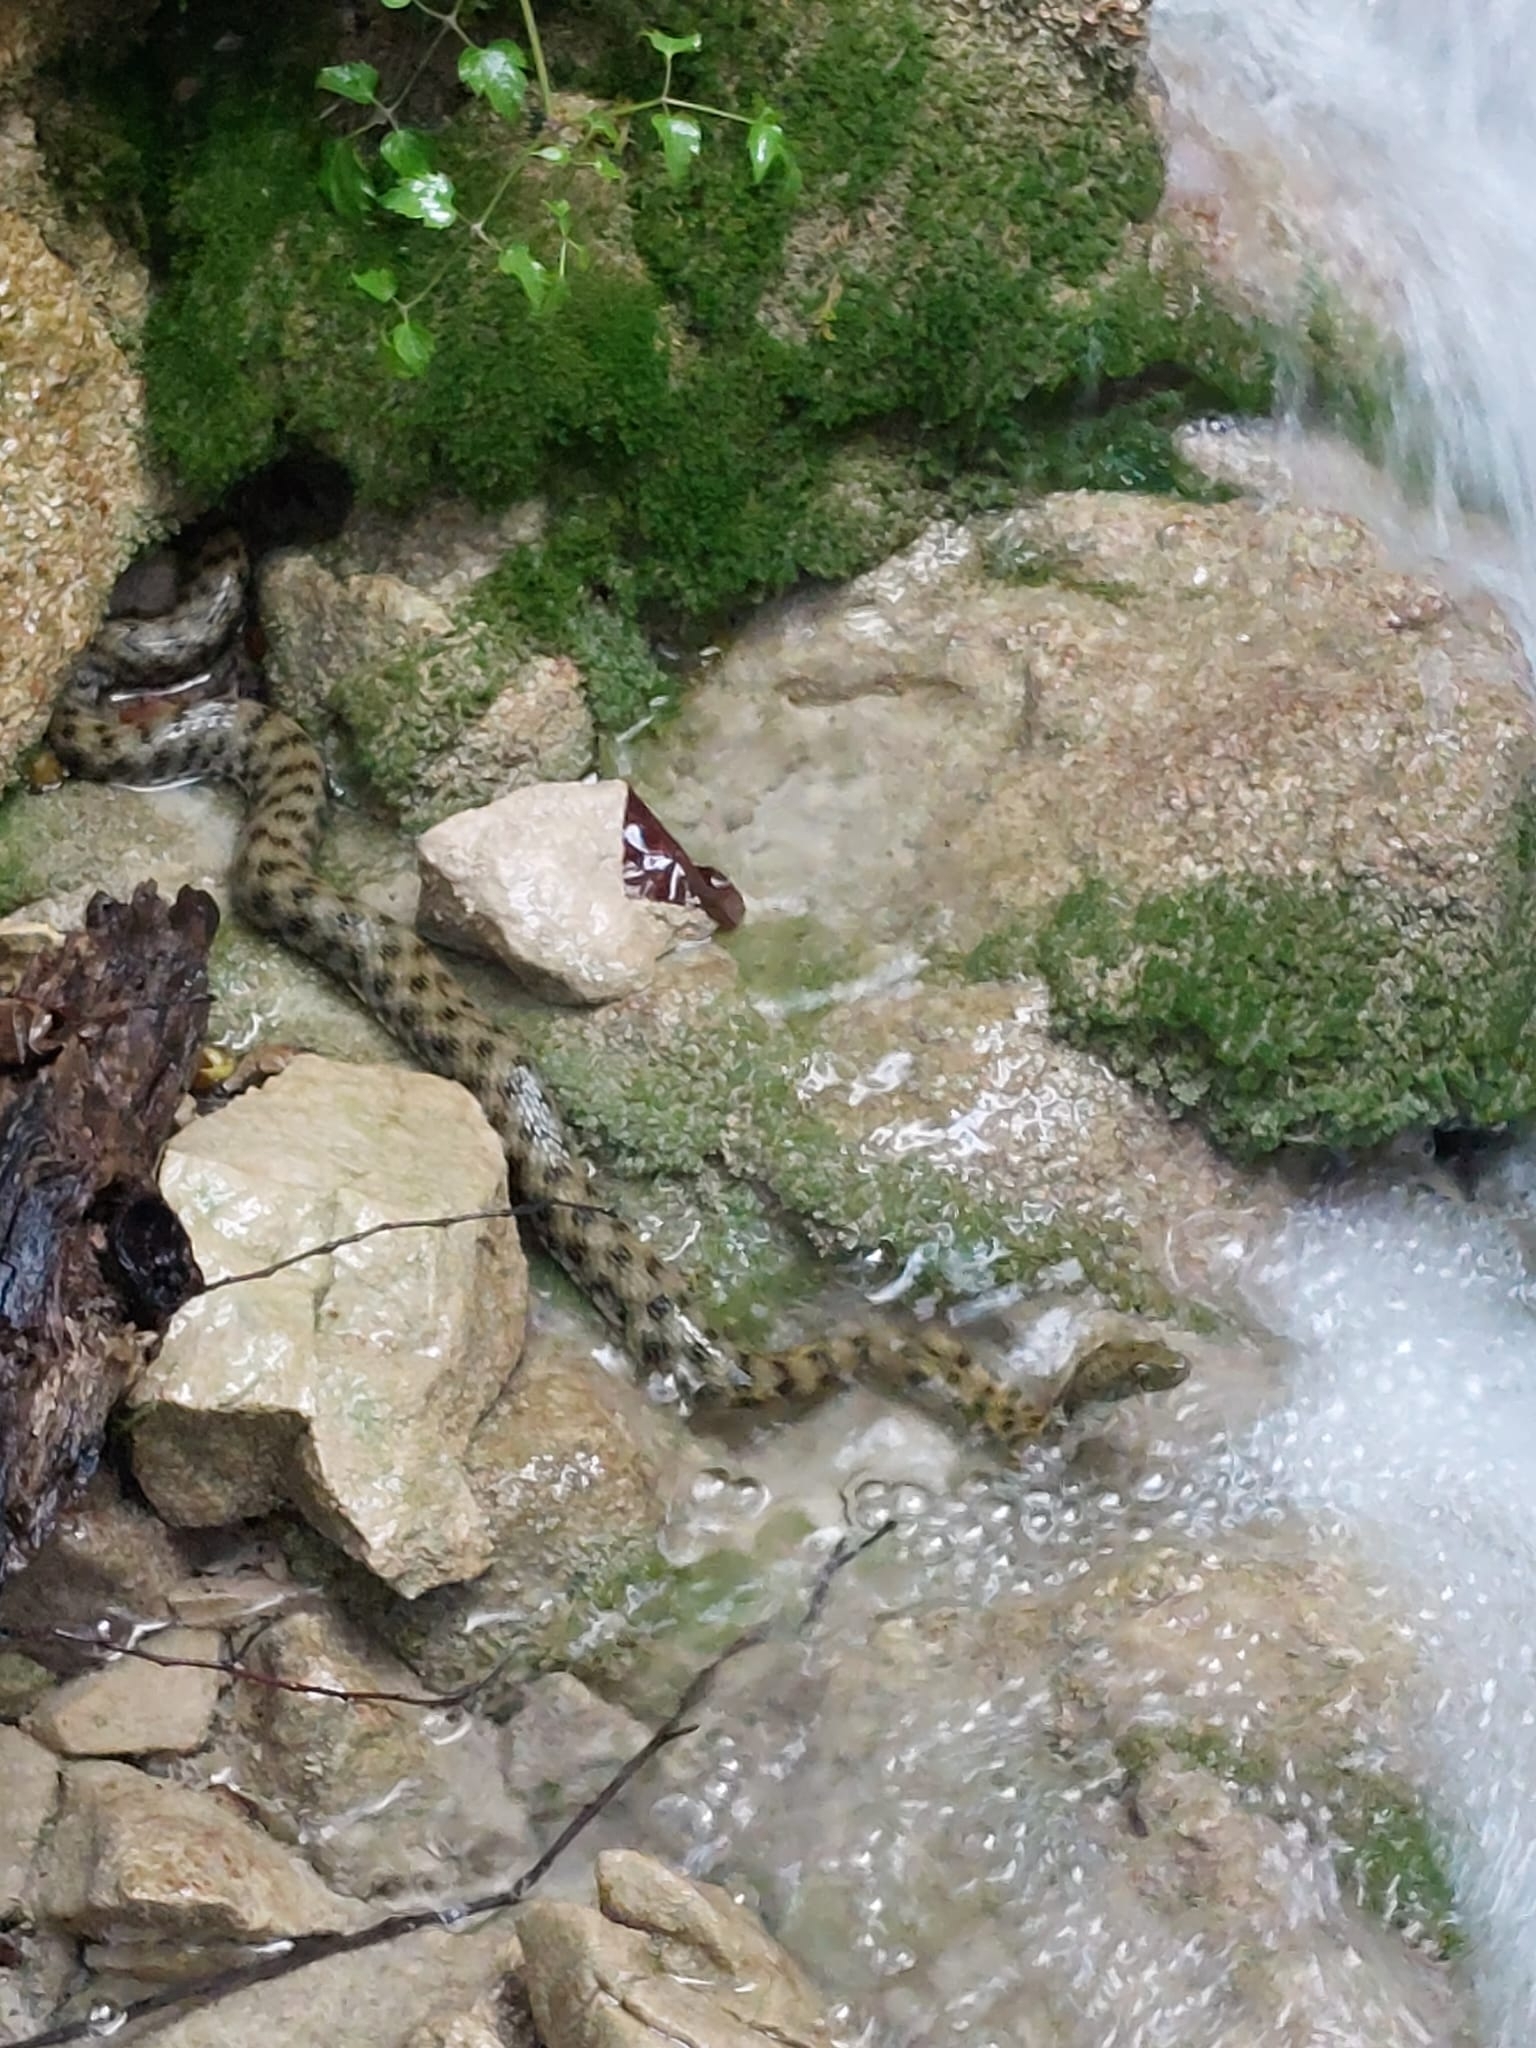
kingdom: Animalia
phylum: Chordata
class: Squamata
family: Colubridae
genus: Natrix
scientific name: Natrix tessellata
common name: Dice snake
